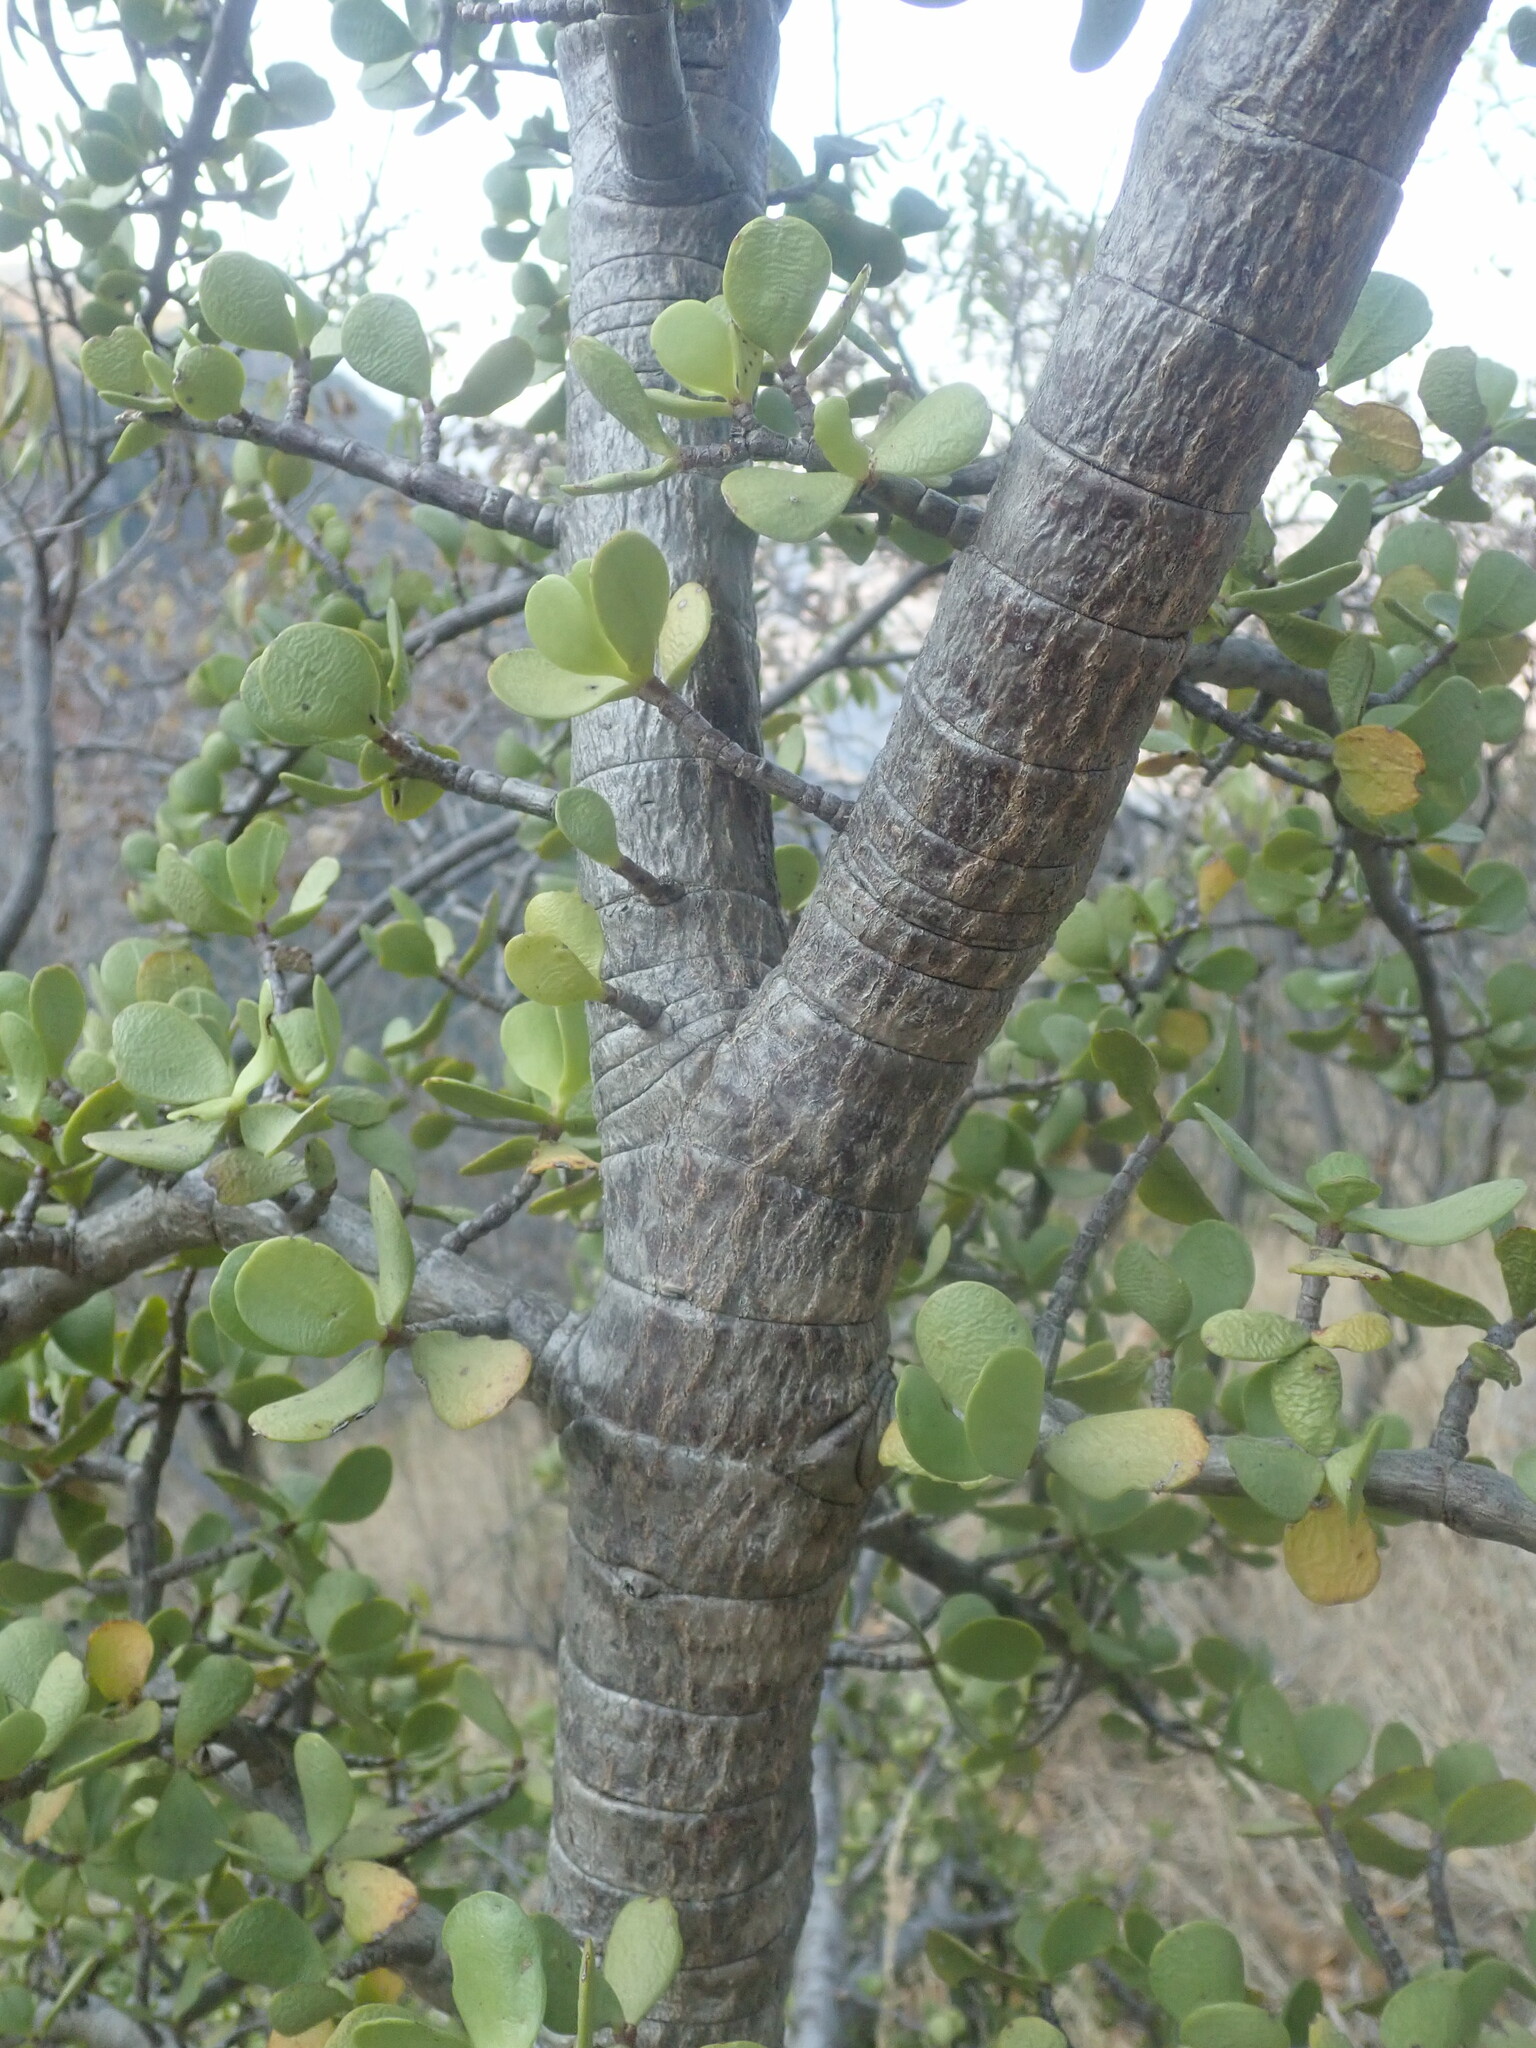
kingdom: Plantae
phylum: Tracheophyta
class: Magnoliopsida
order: Caryophyllales
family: Didiereaceae
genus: Portulacaria
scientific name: Portulacaria afra
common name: Elephant-bush
